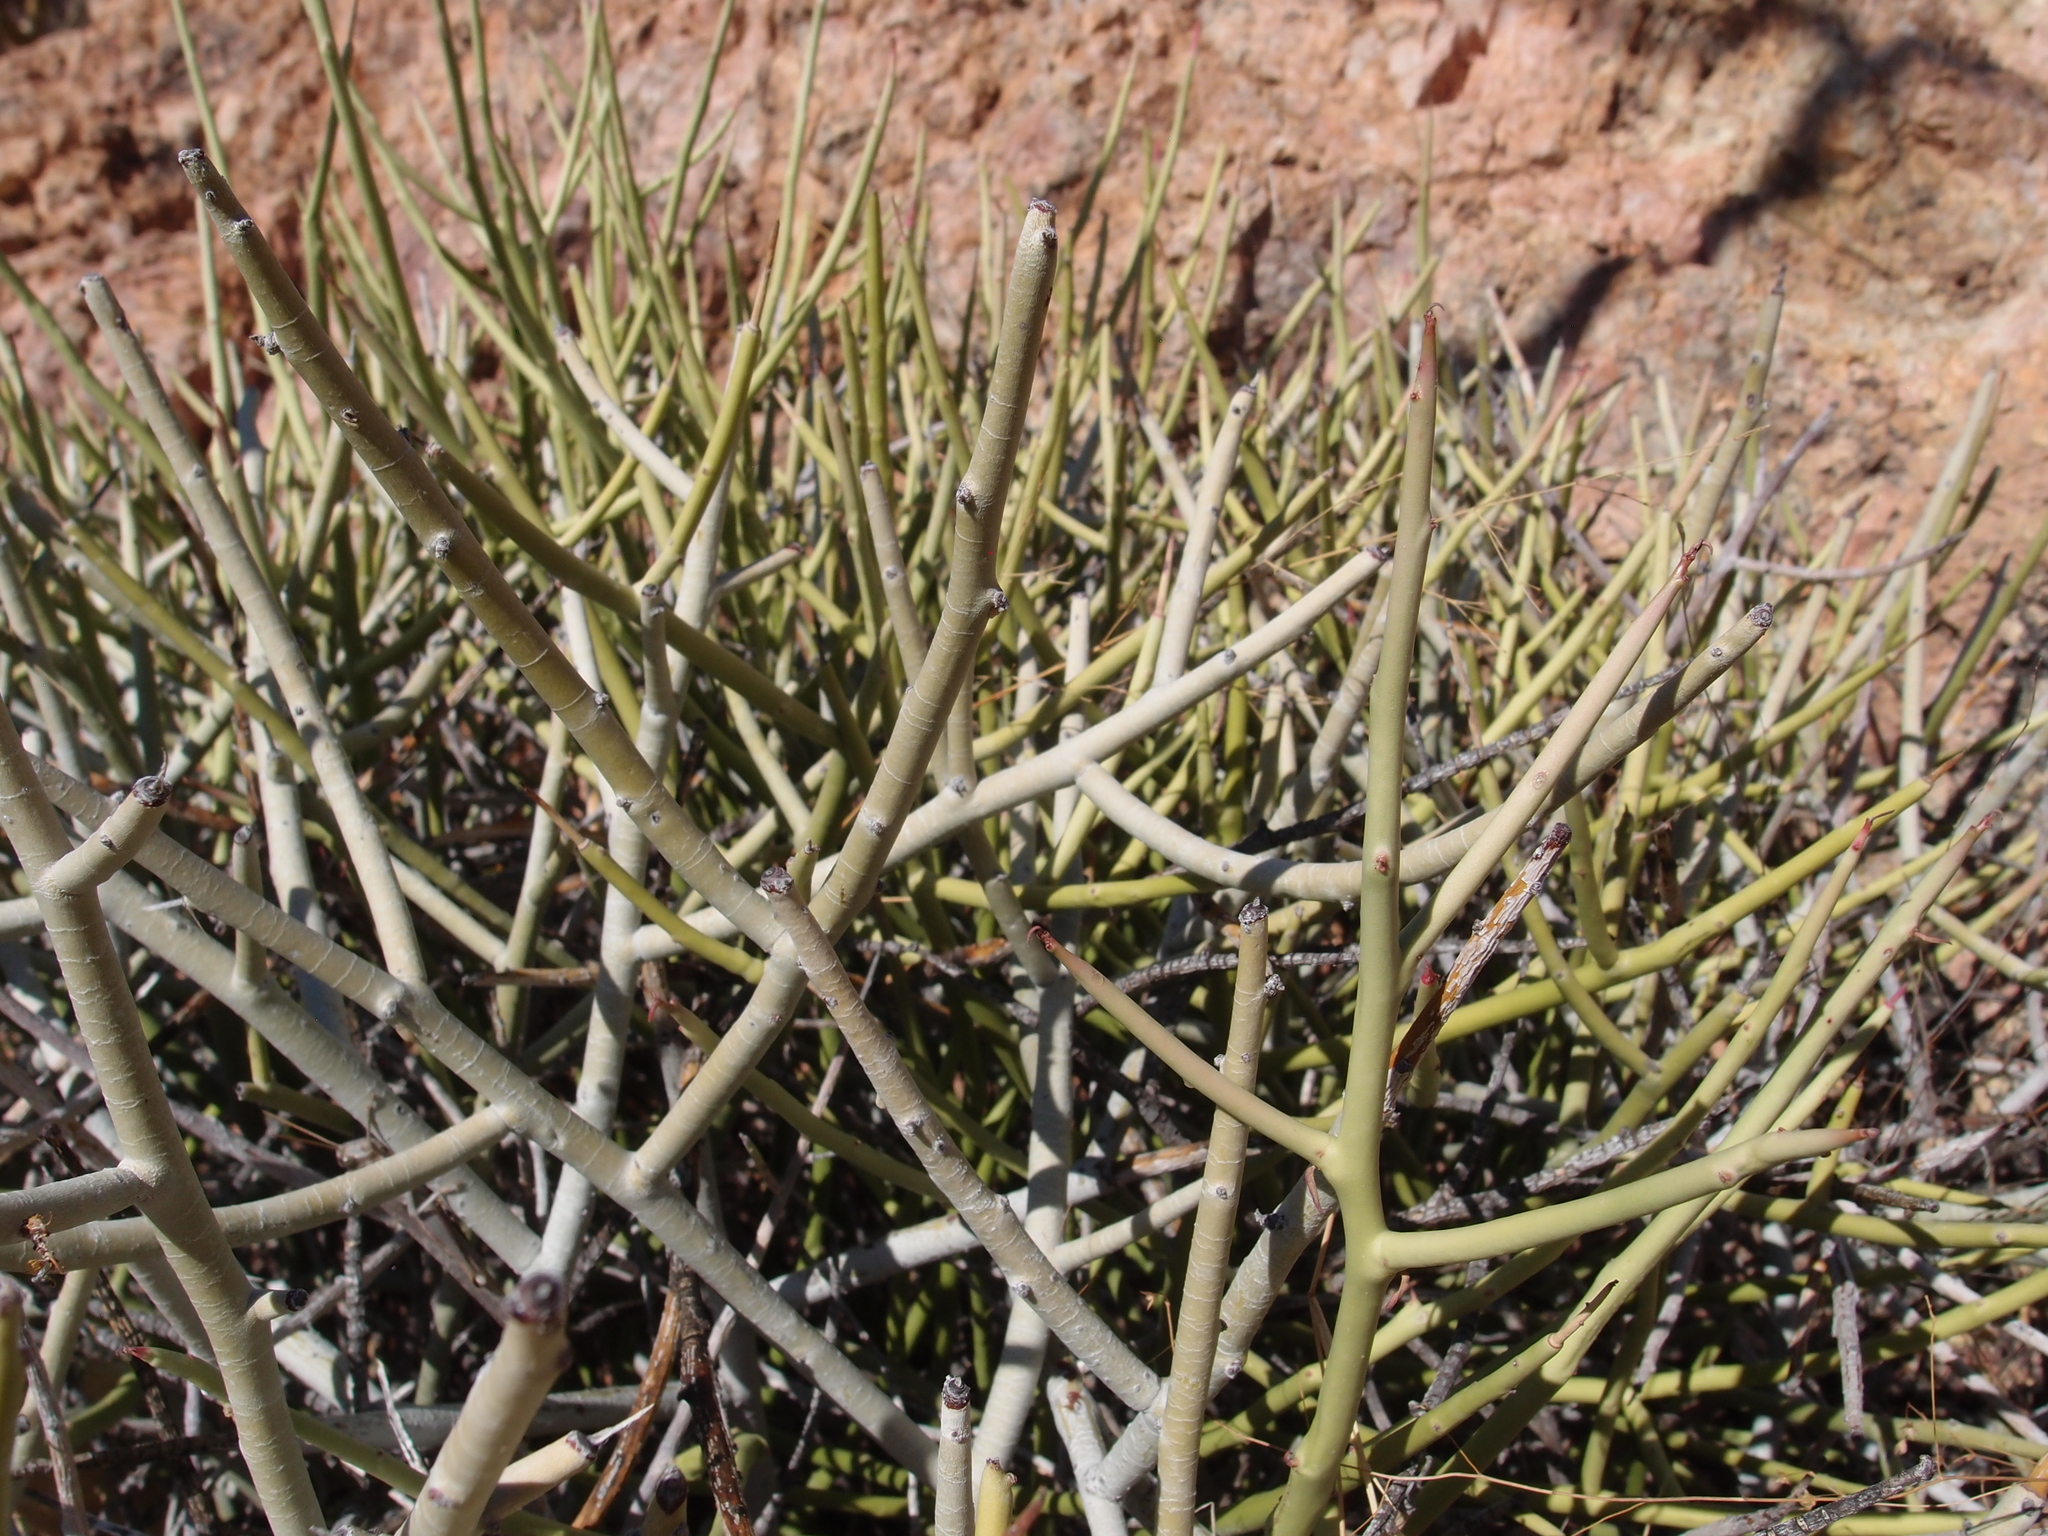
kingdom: Plantae
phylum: Tracheophyta
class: Magnoliopsida
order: Malpighiales
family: Euphorbiaceae
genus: Euphorbia
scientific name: Euphorbia ceroderma
